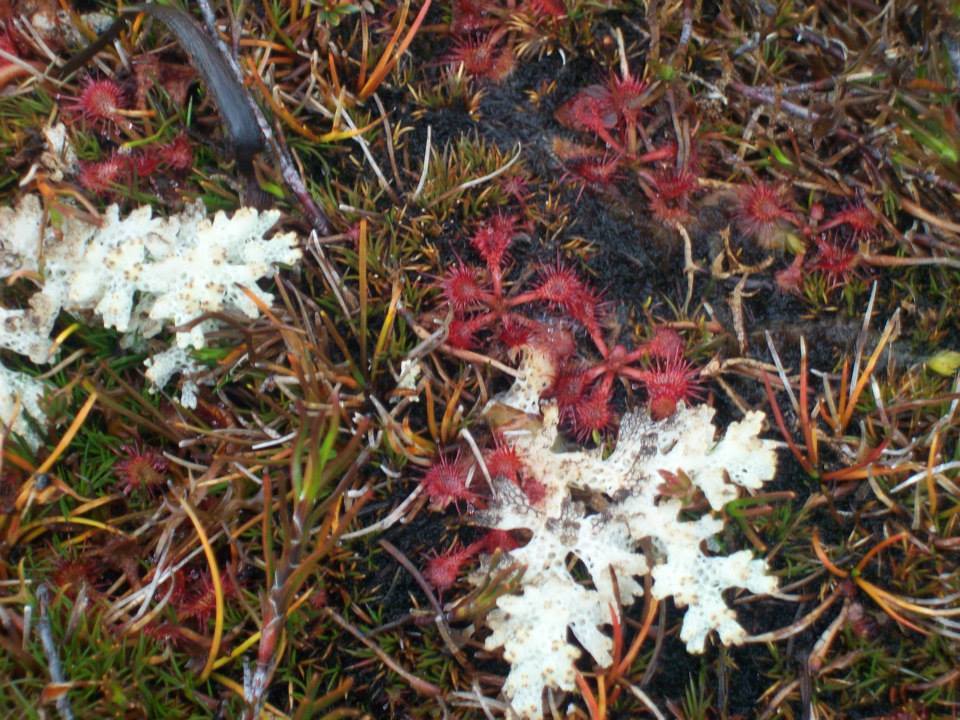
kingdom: Plantae
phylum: Tracheophyta
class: Magnoliopsida
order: Caryophyllales
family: Droseraceae
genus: Drosera
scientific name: Drosera spatulata
